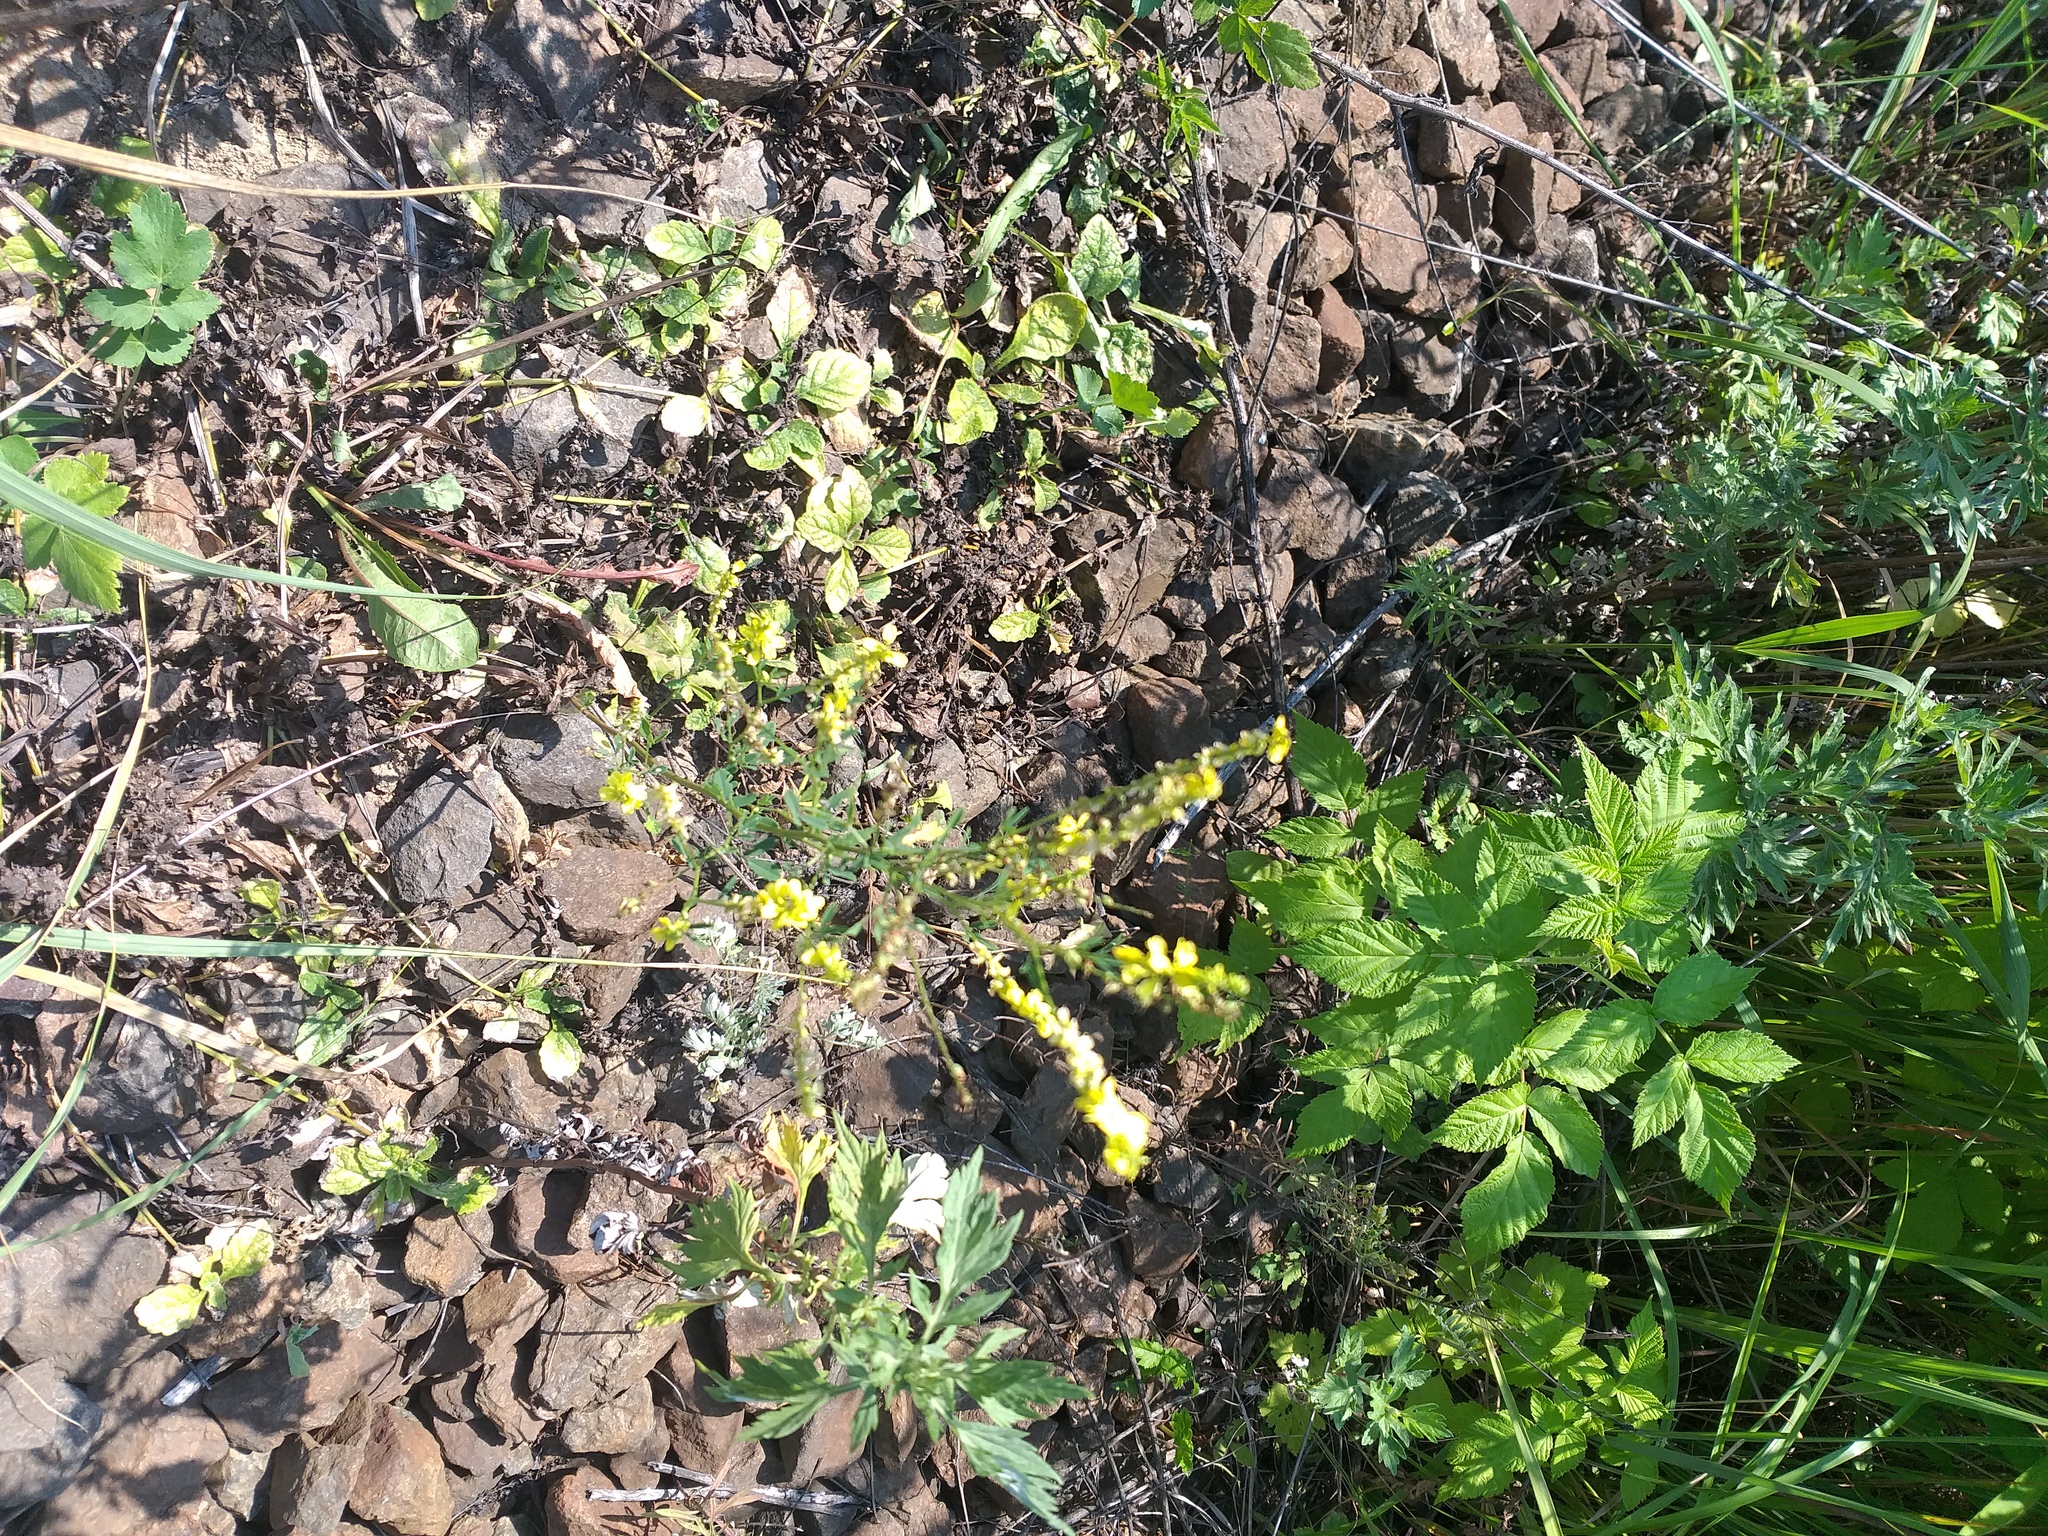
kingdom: Plantae
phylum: Tracheophyta
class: Magnoliopsida
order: Fabales
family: Fabaceae
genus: Melilotus
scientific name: Melilotus officinalis
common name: Sweetclover
